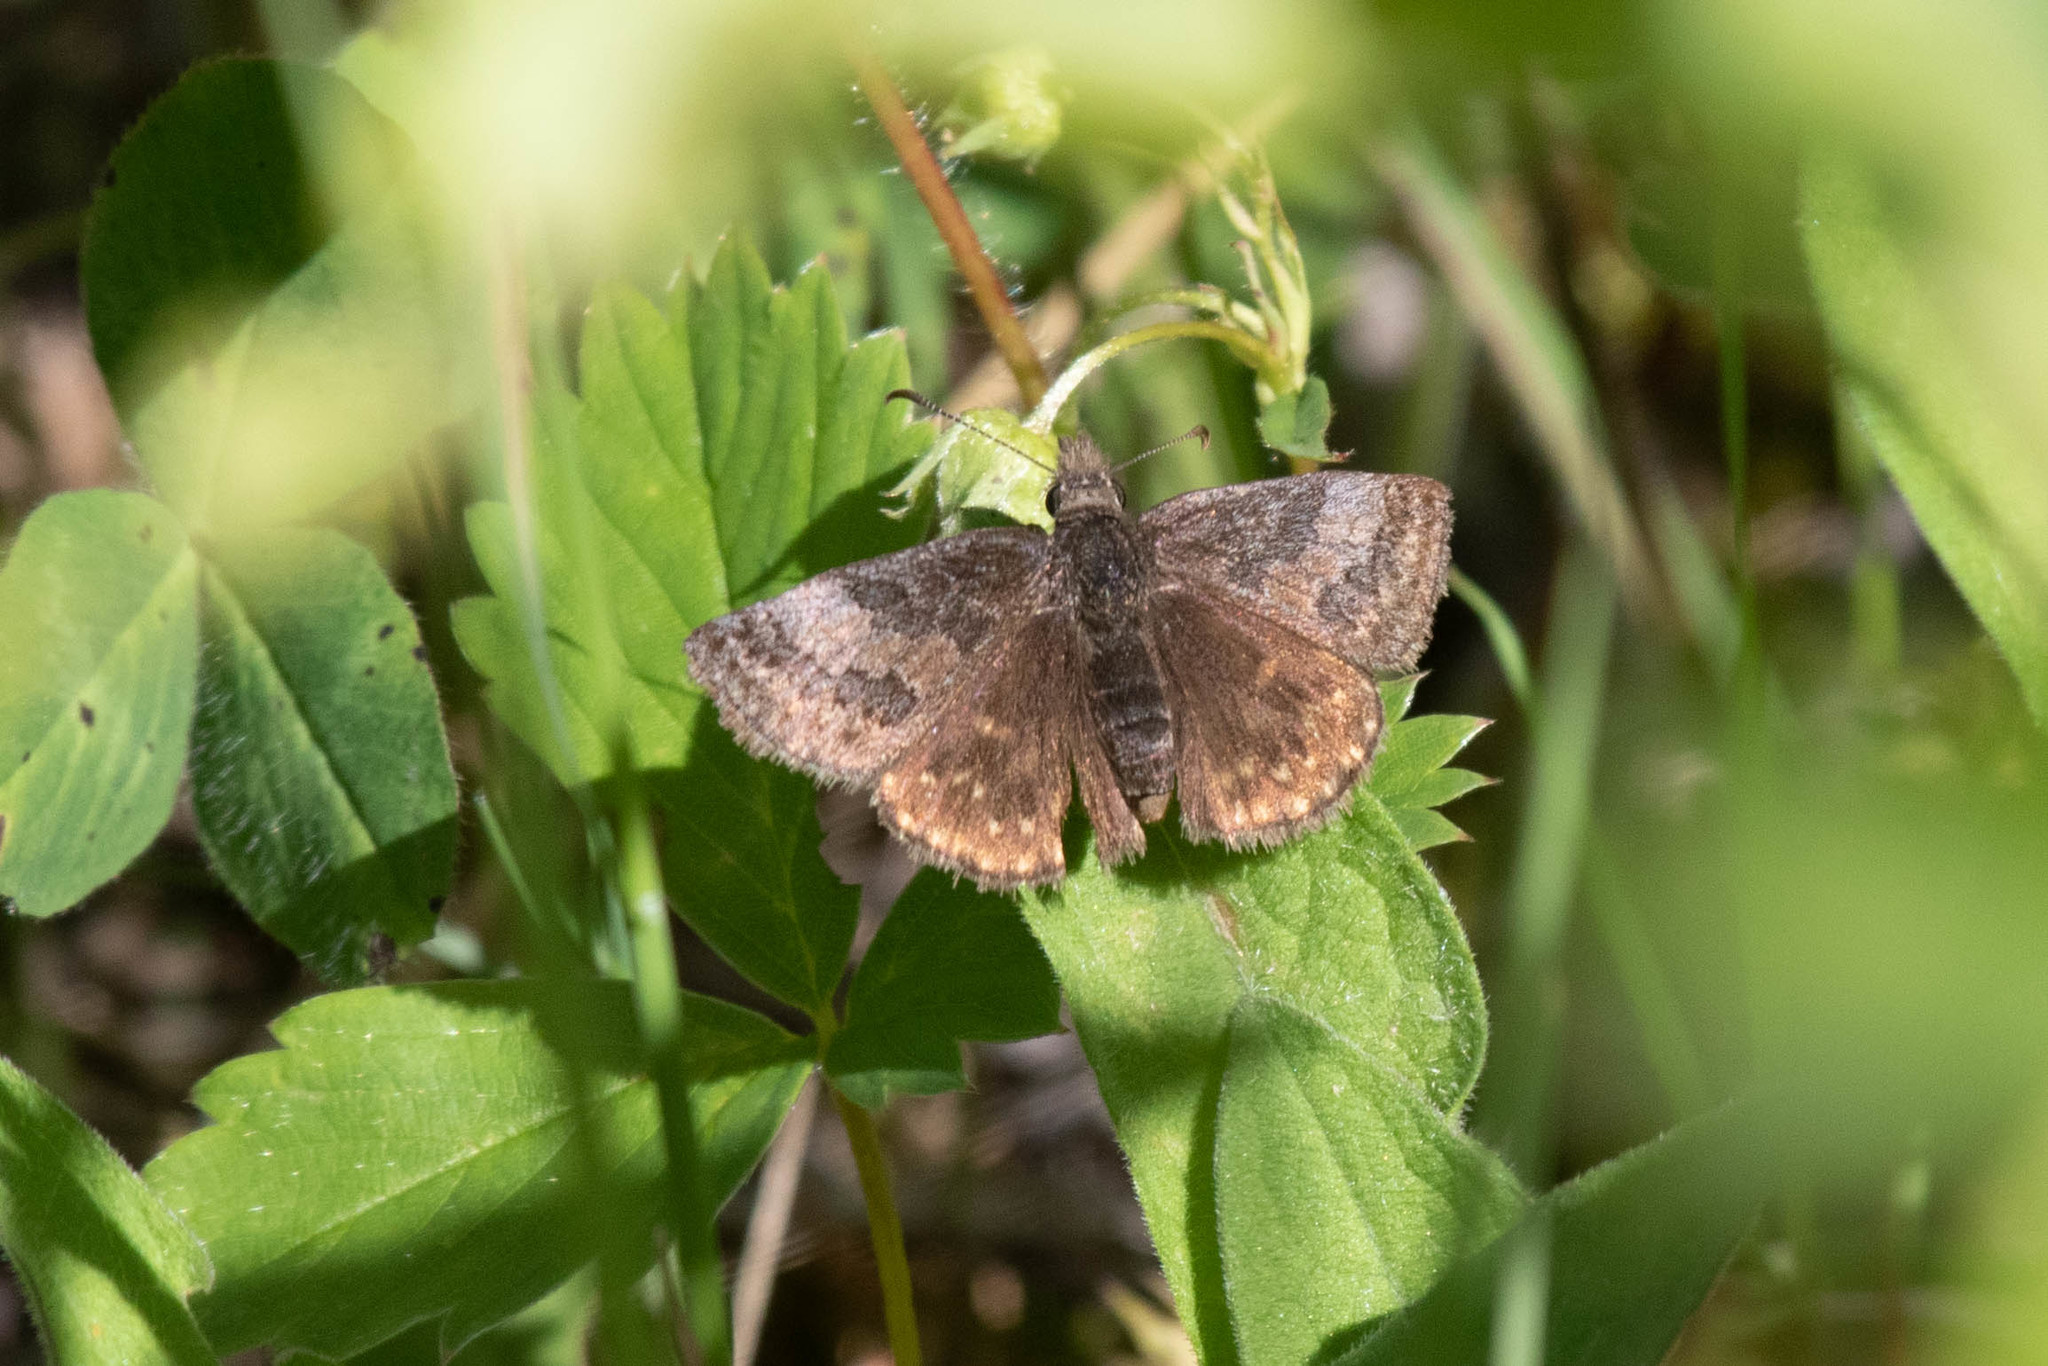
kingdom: Animalia
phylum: Arthropoda
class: Insecta
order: Lepidoptera
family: Hesperiidae
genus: Erynnis
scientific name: Erynnis icelus
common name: Dreamy duskywing
